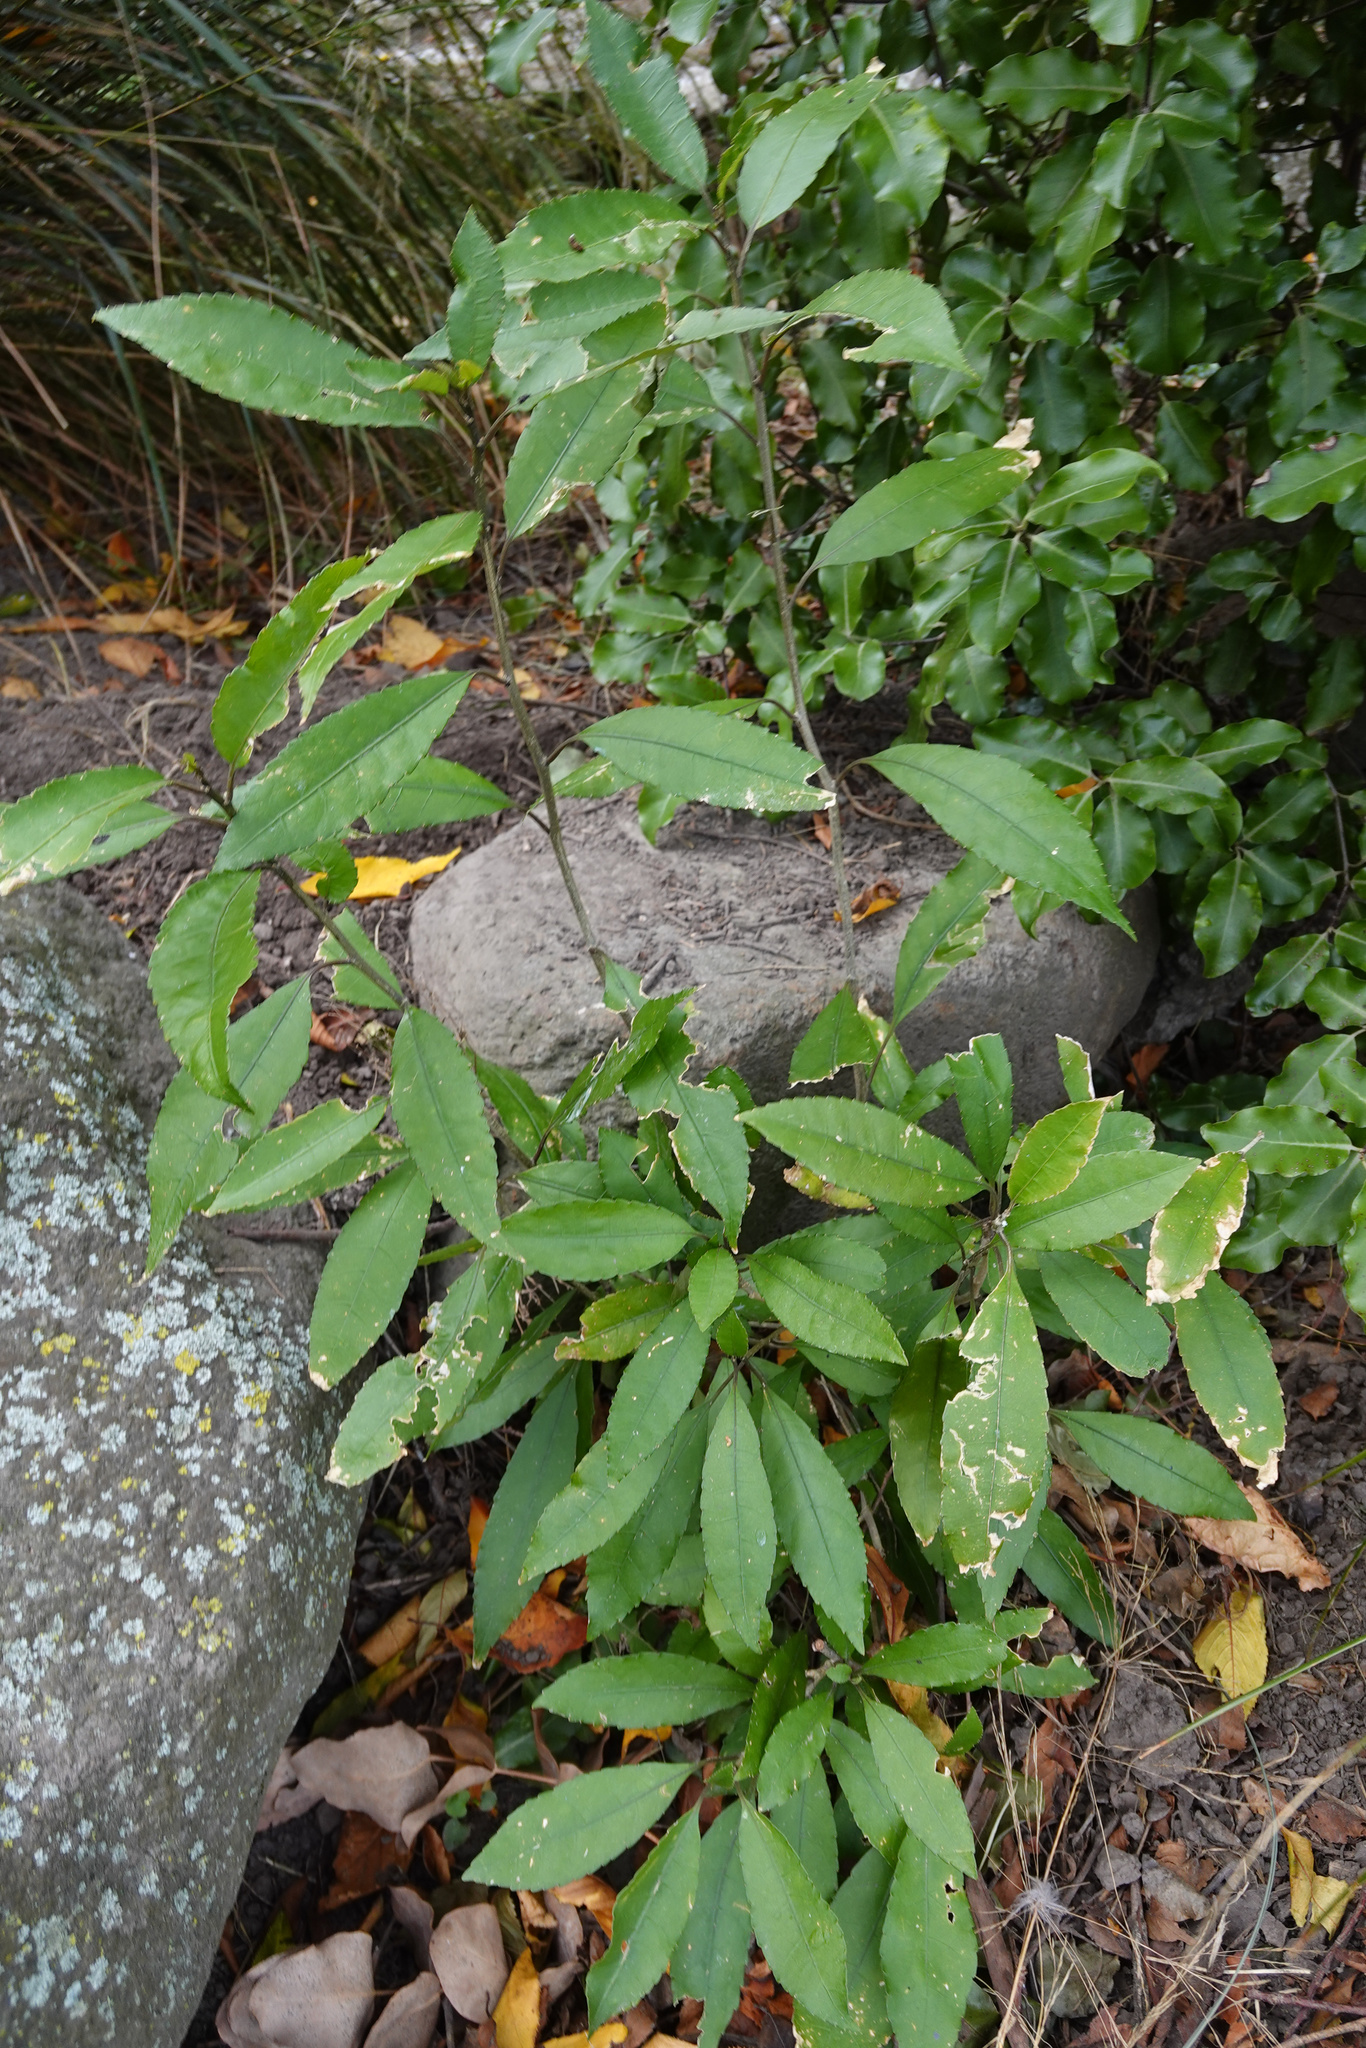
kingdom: Plantae
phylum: Tracheophyta
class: Magnoliopsida
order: Malpighiales
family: Violaceae
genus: Melicytus
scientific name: Melicytus ramiflorus
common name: Mahoe
